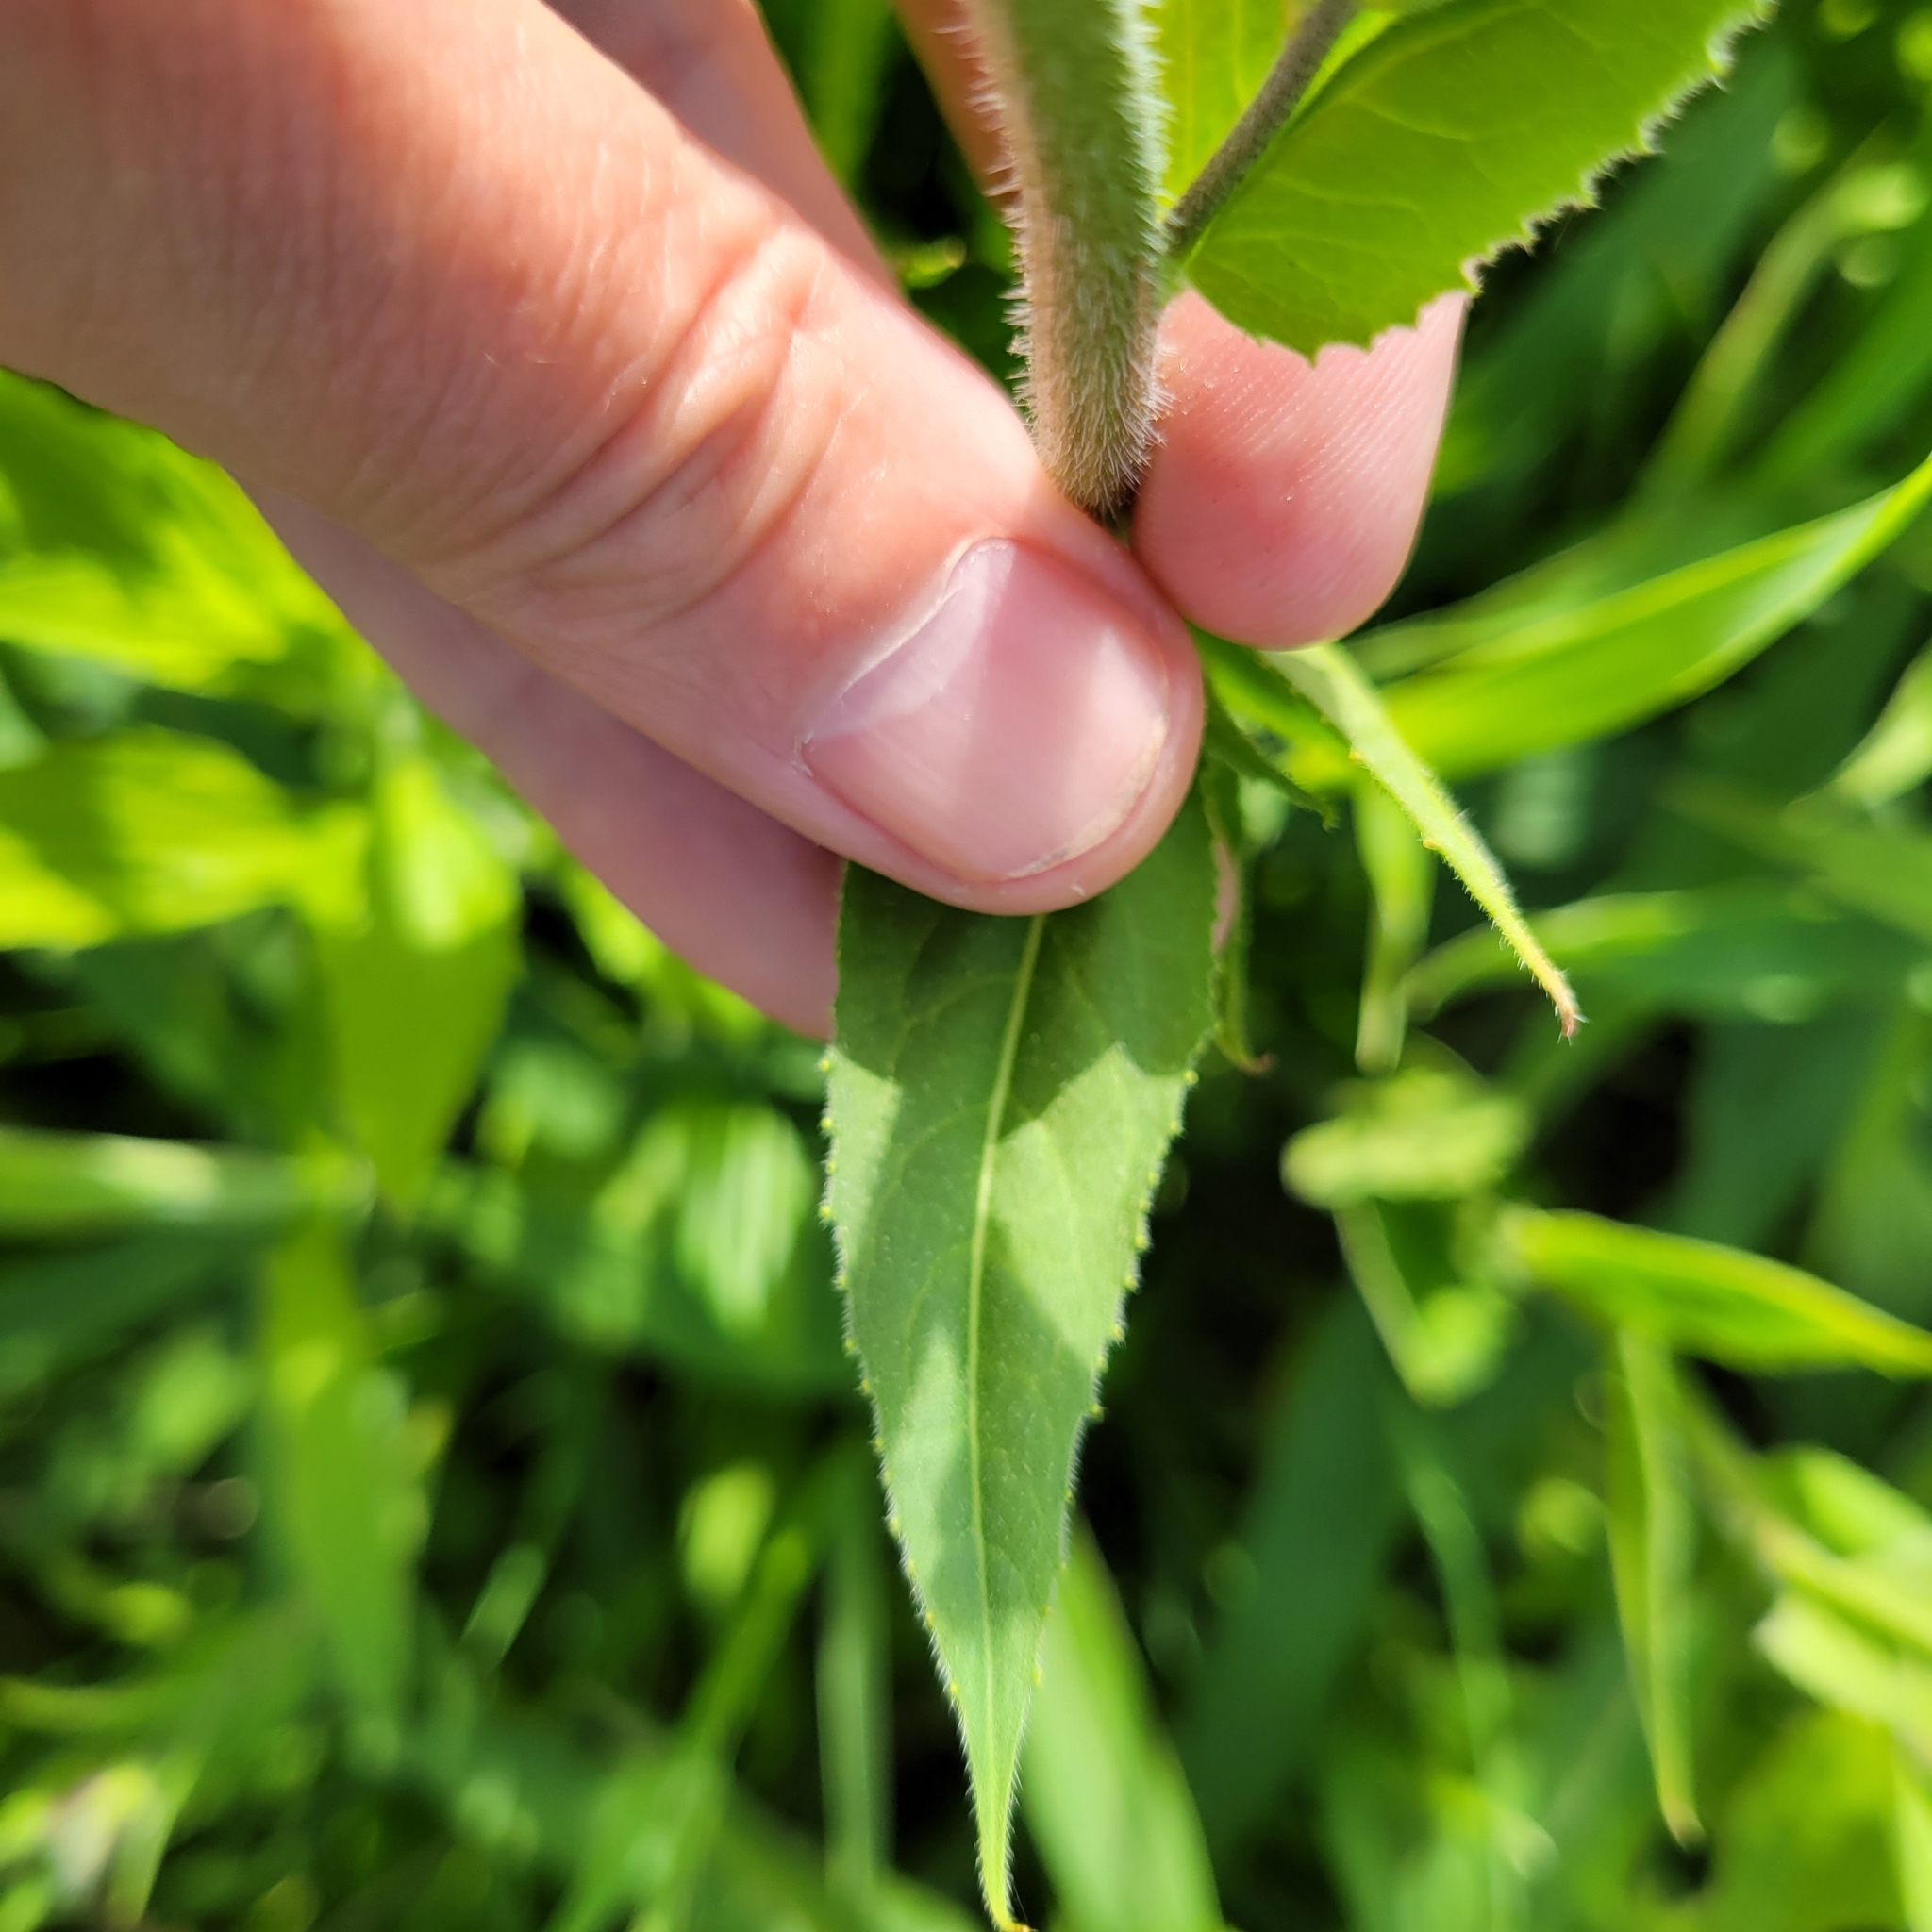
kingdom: Plantae
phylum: Tracheophyta
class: Magnoliopsida
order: Brassicales
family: Brassicaceae
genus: Hesperis
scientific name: Hesperis matronalis
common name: Dame's-violet
